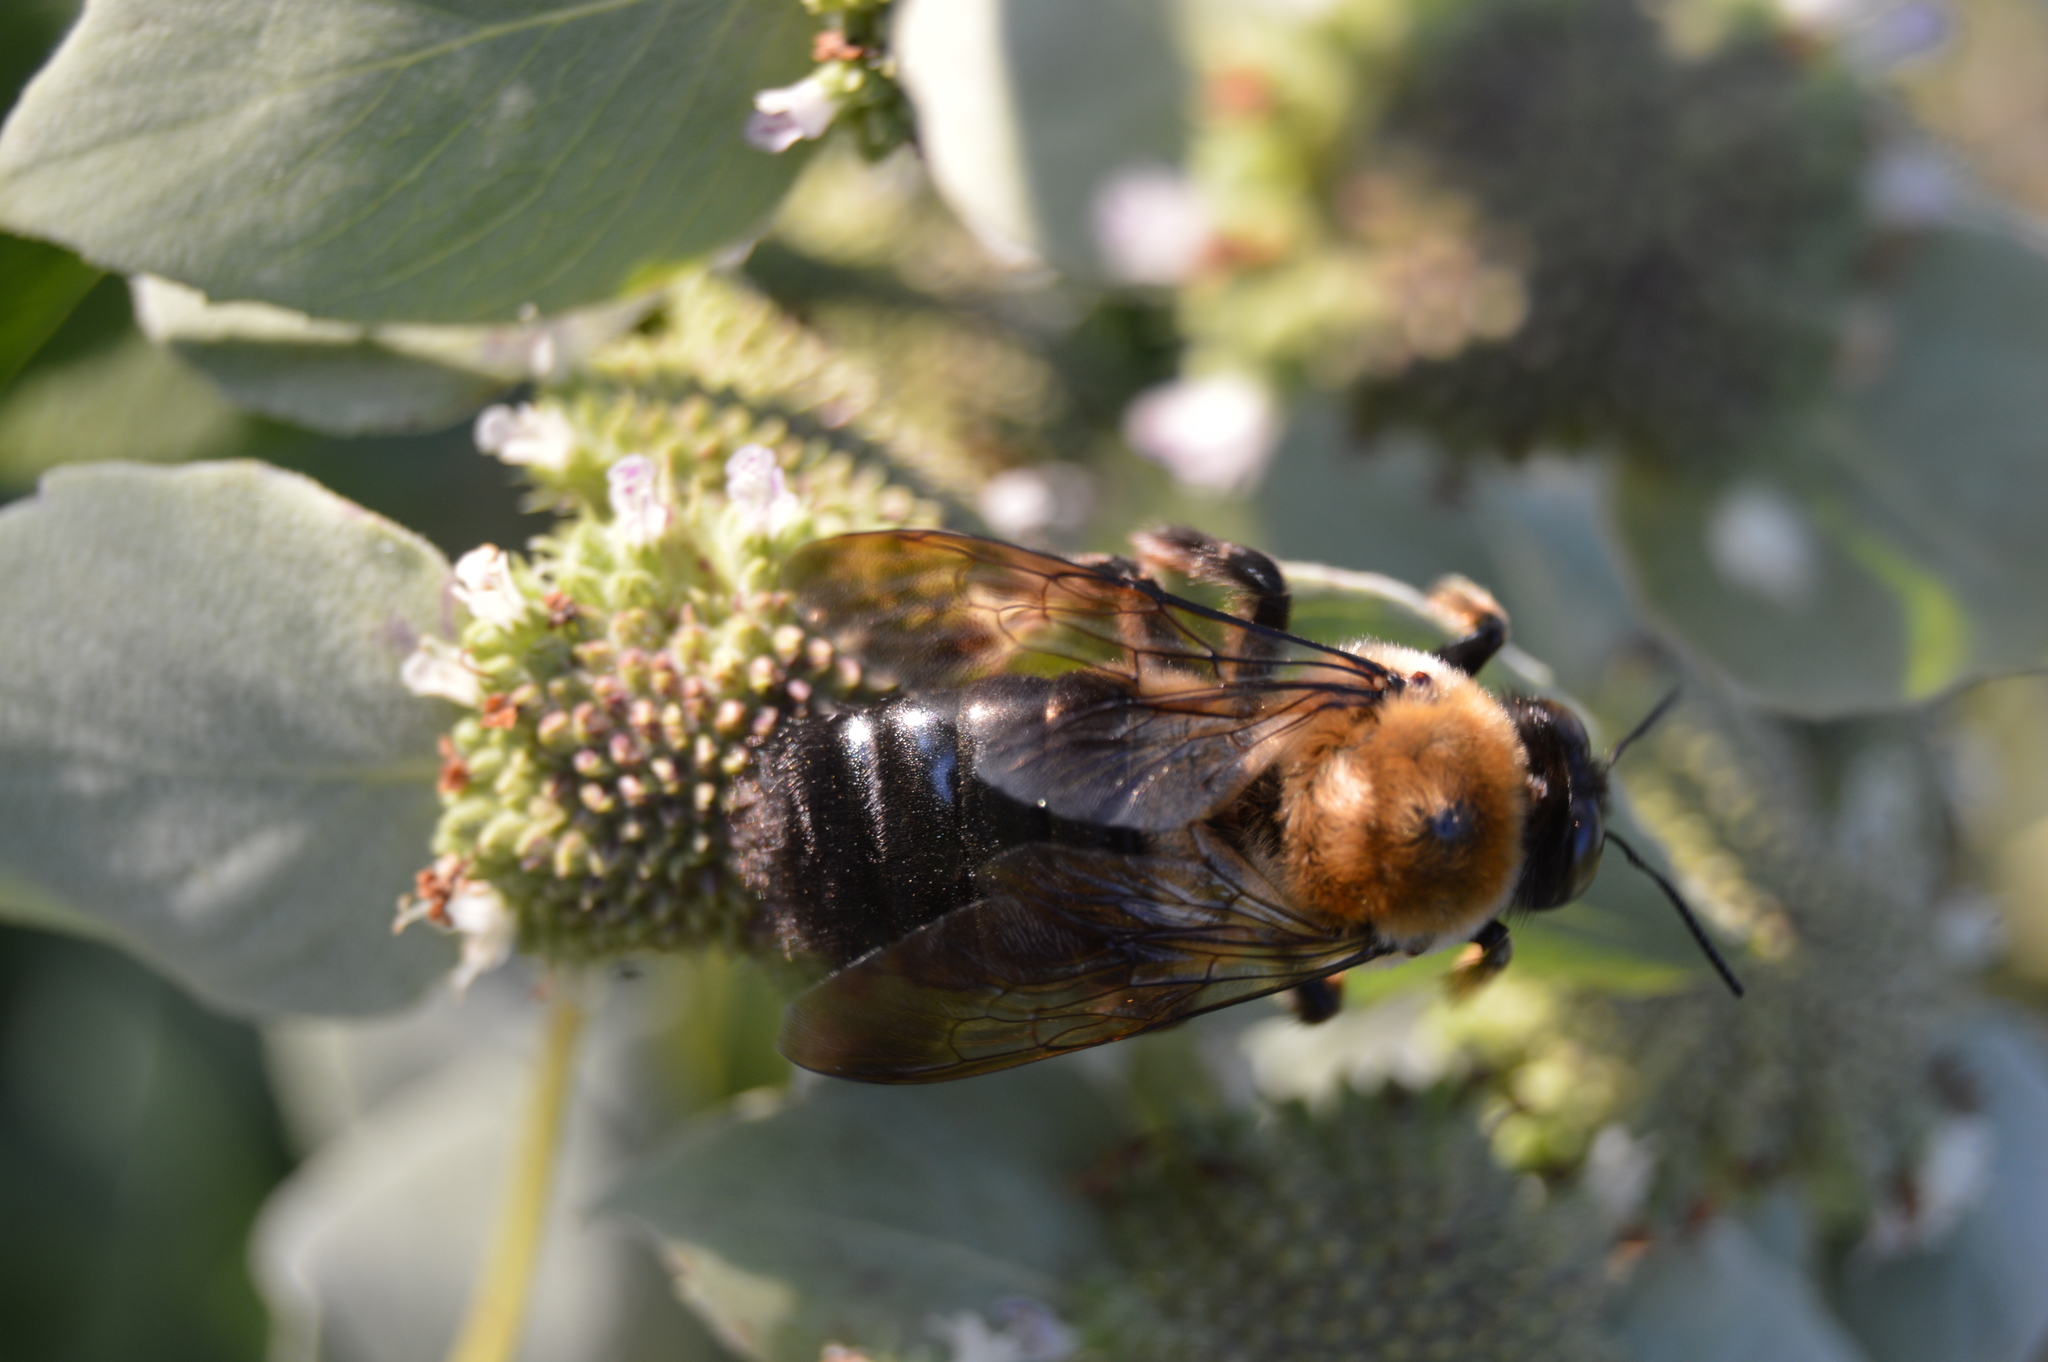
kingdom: Animalia
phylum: Arthropoda
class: Insecta
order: Hymenoptera
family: Apidae
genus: Xylocopa
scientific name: Xylocopa virginica
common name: Carpenter bee
